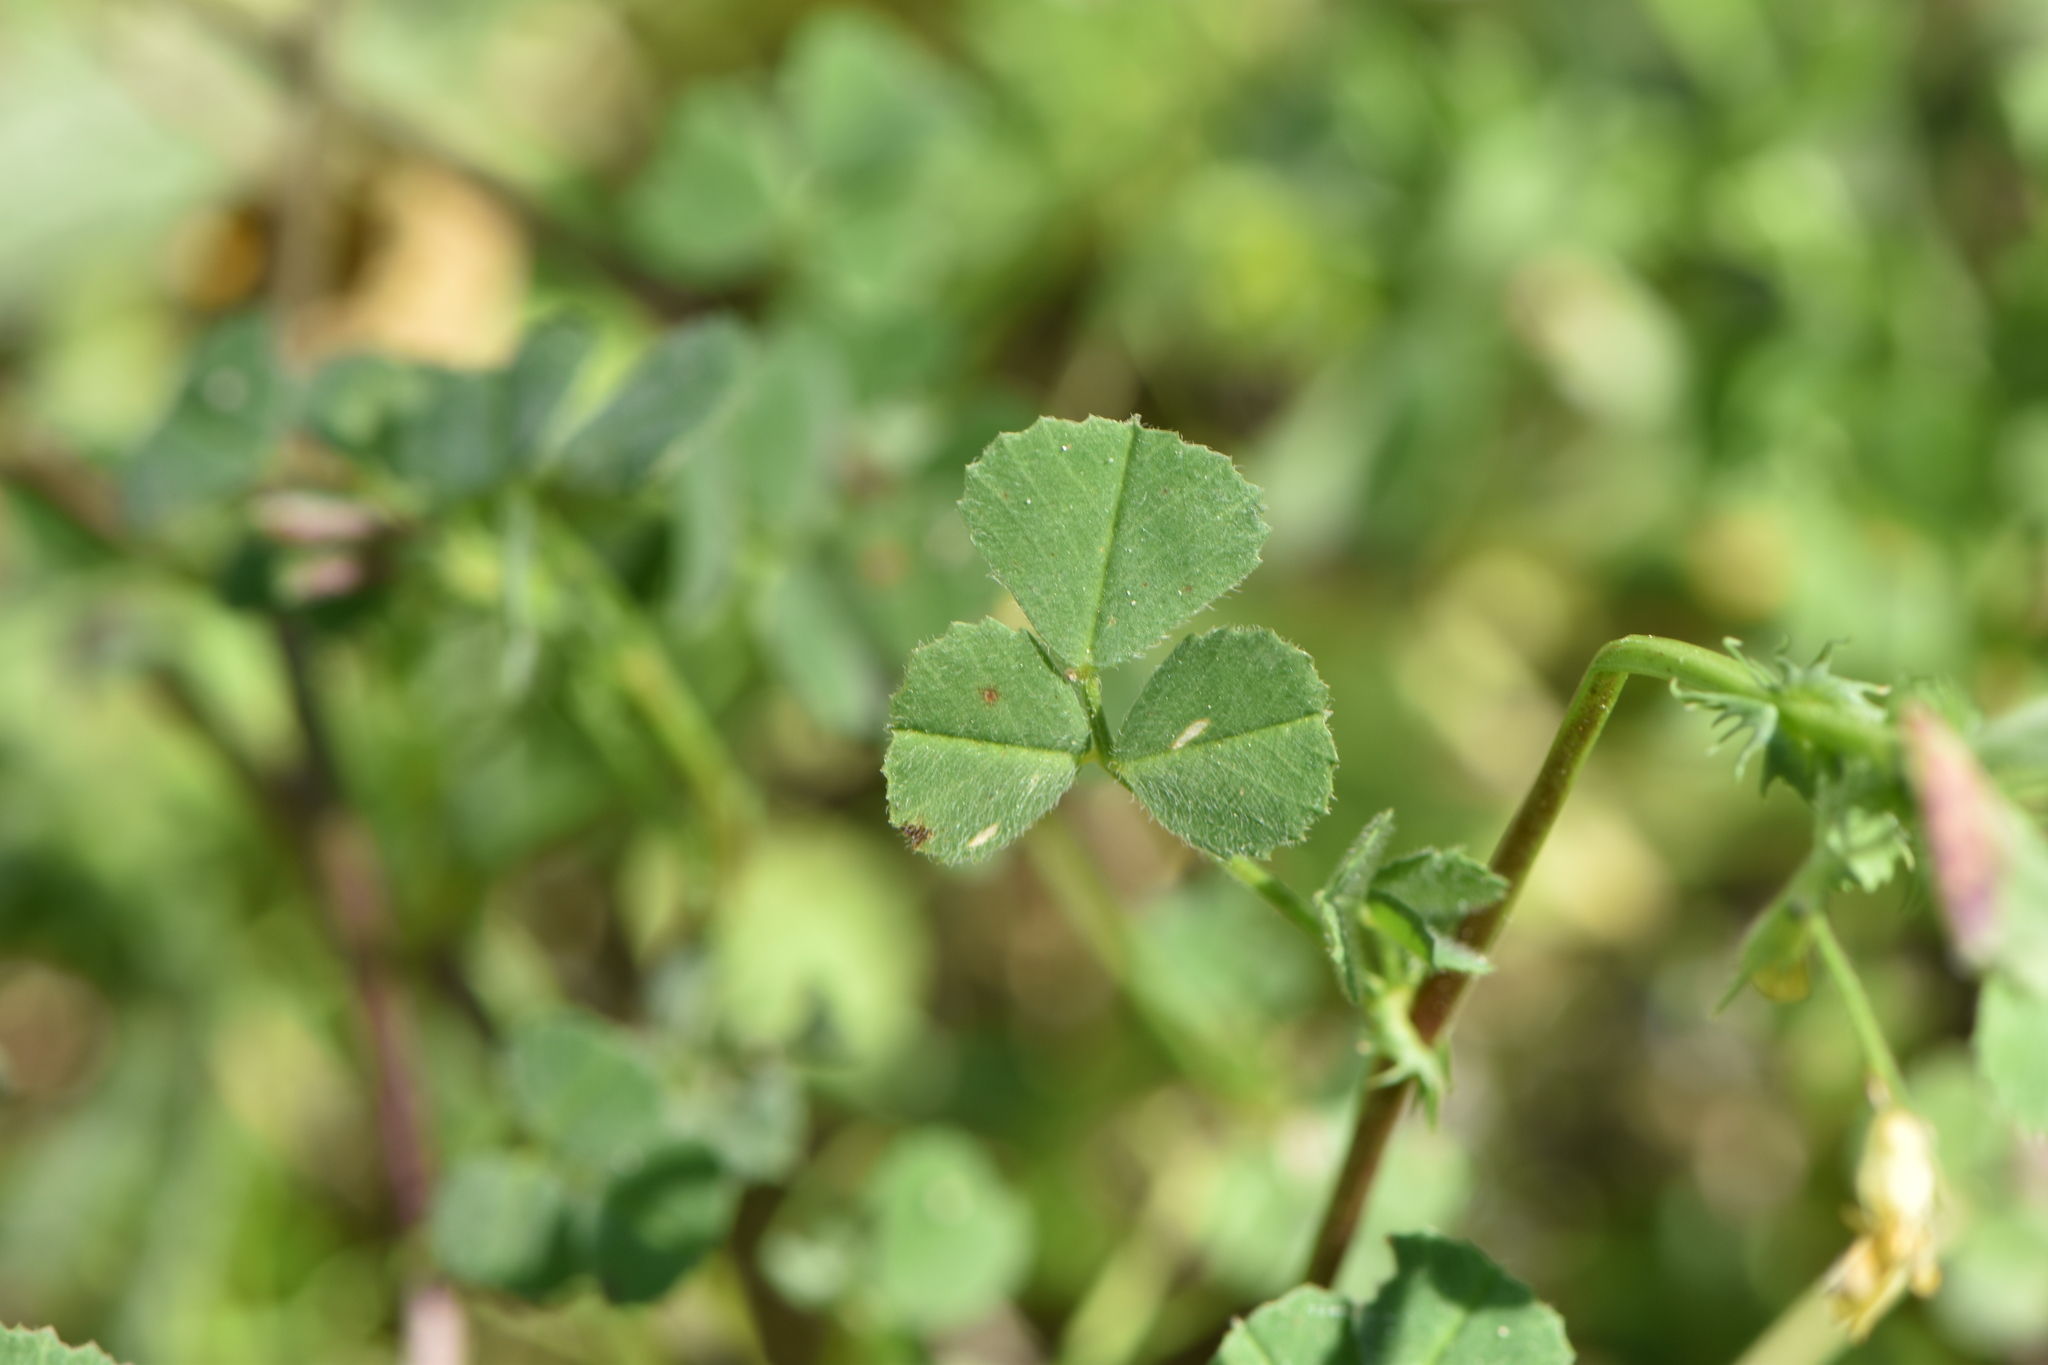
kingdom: Plantae
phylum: Tracheophyta
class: Magnoliopsida
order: Fabales
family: Fabaceae
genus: Medicago
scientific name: Medicago littoralis
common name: Shore medick
